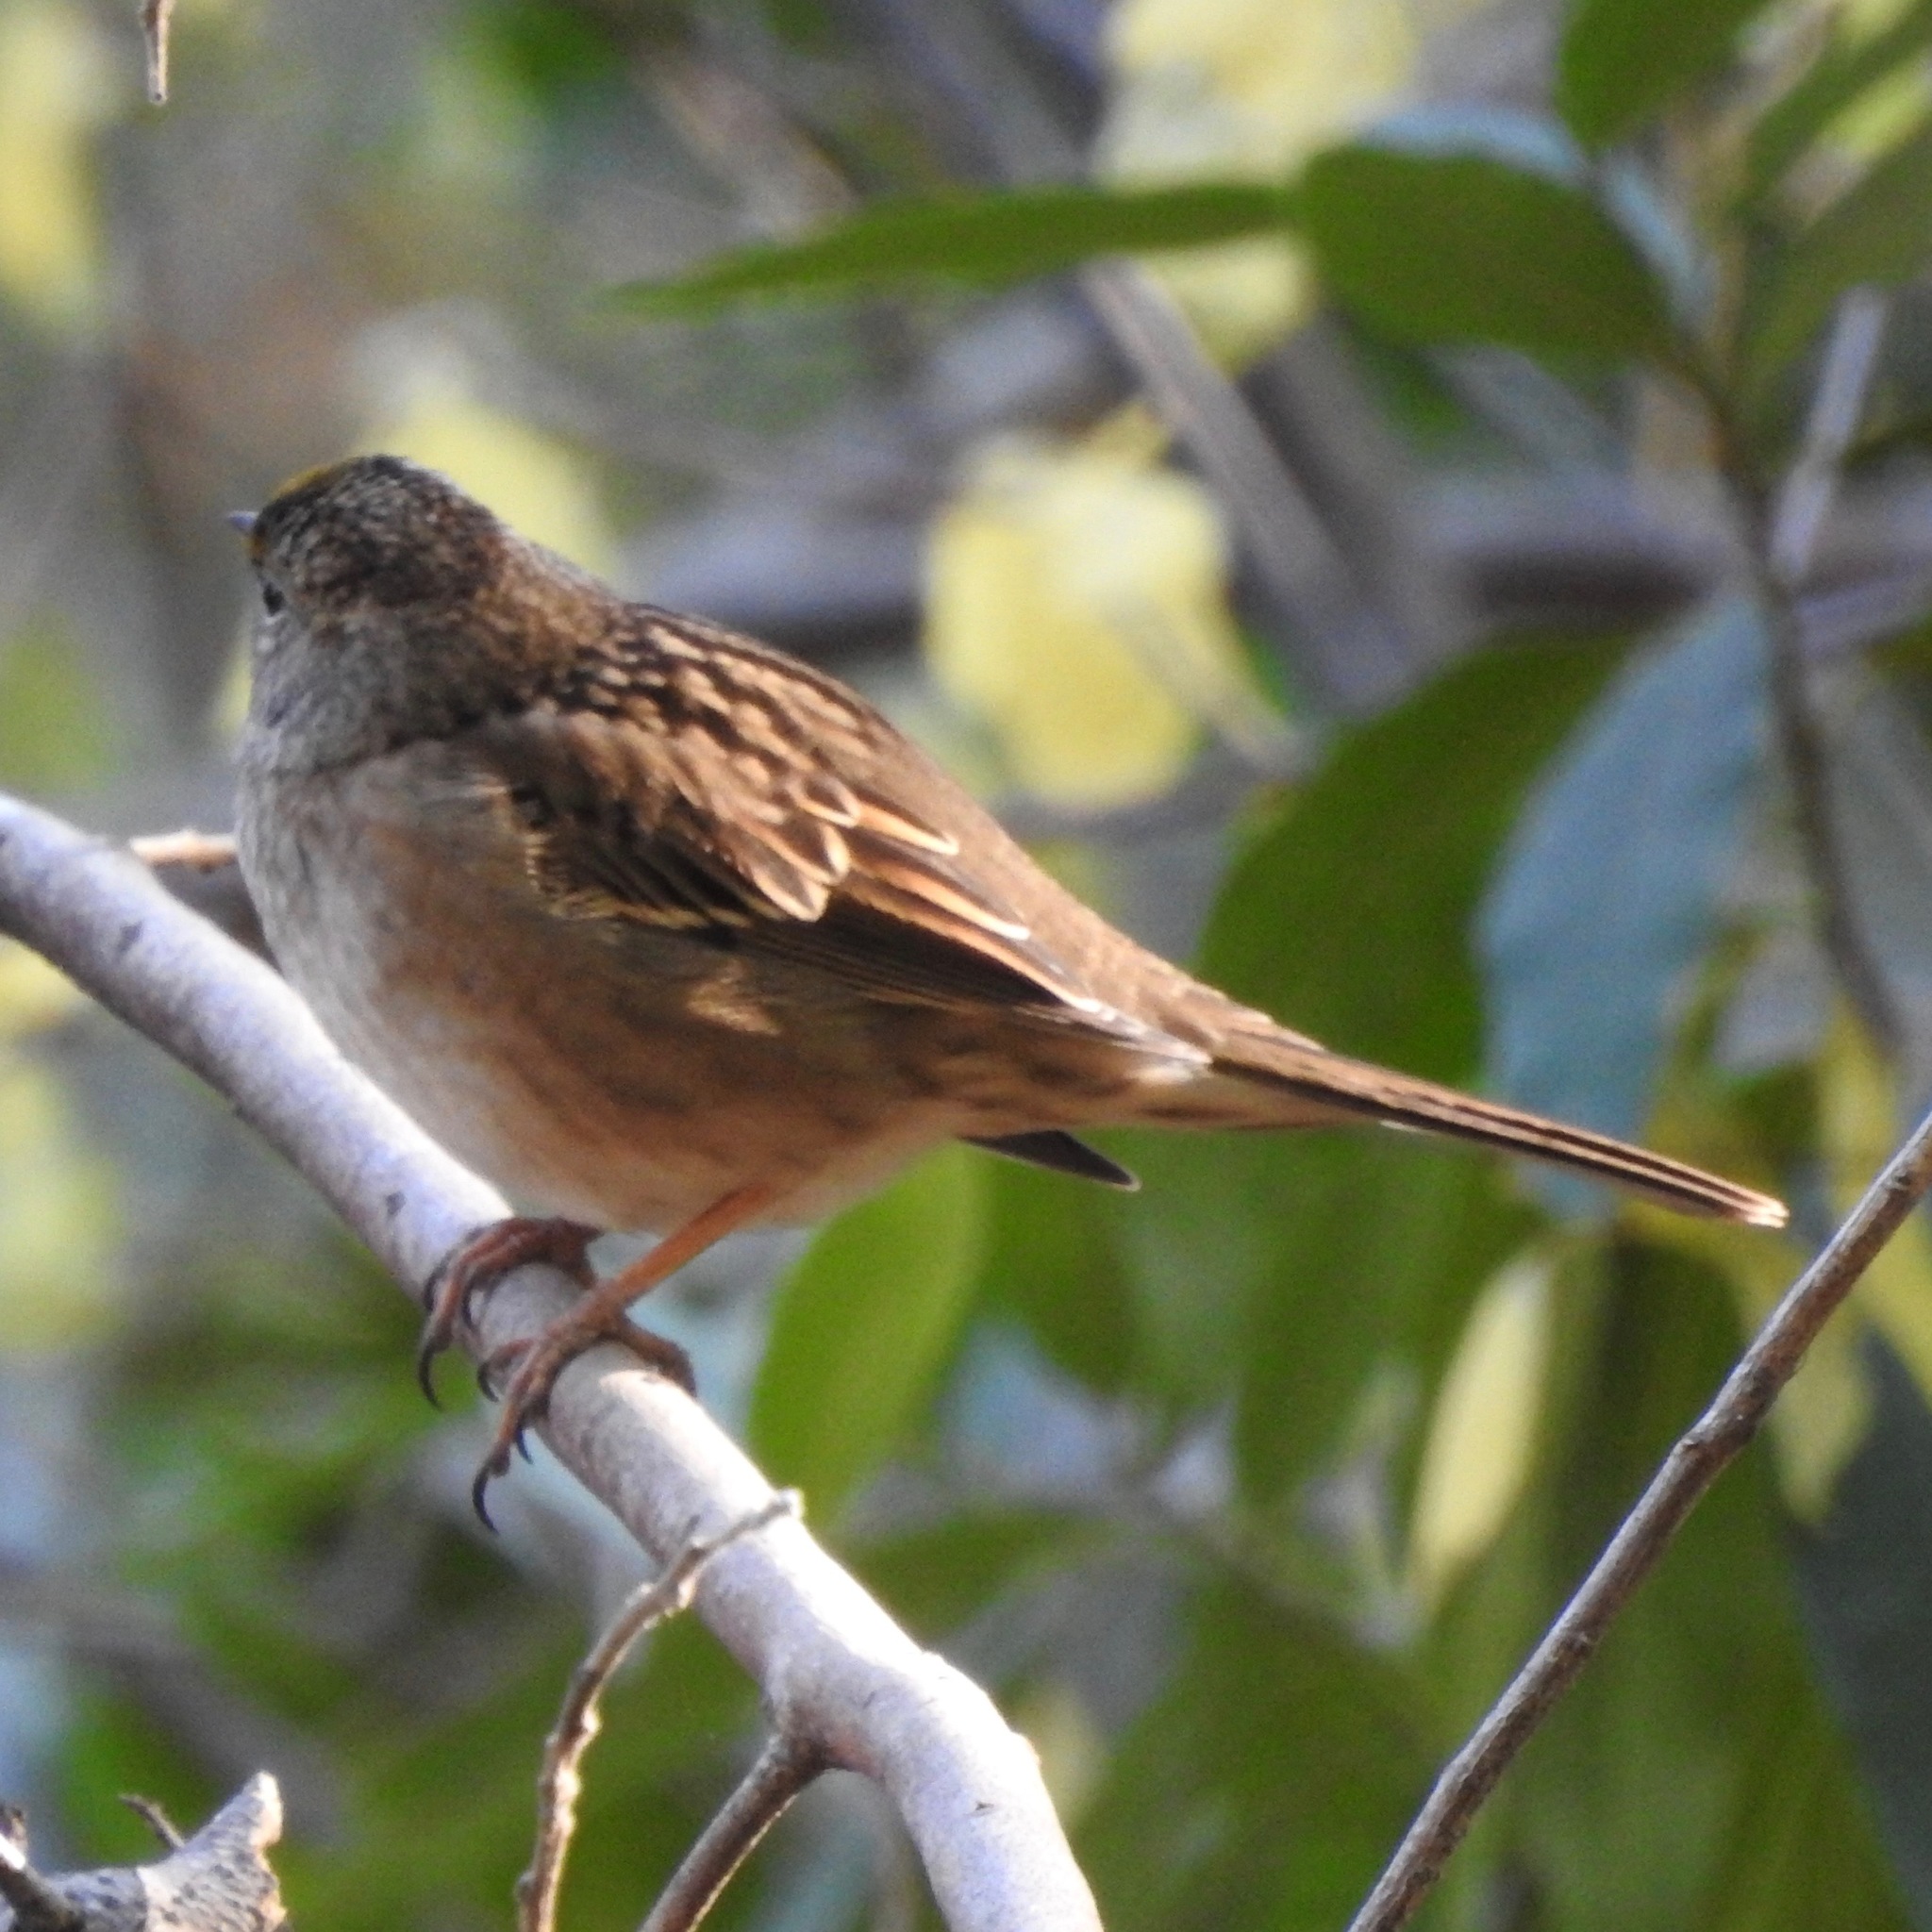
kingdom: Animalia
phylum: Chordata
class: Aves
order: Passeriformes
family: Passerellidae
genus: Zonotrichia
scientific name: Zonotrichia atricapilla
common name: Golden-crowned sparrow
